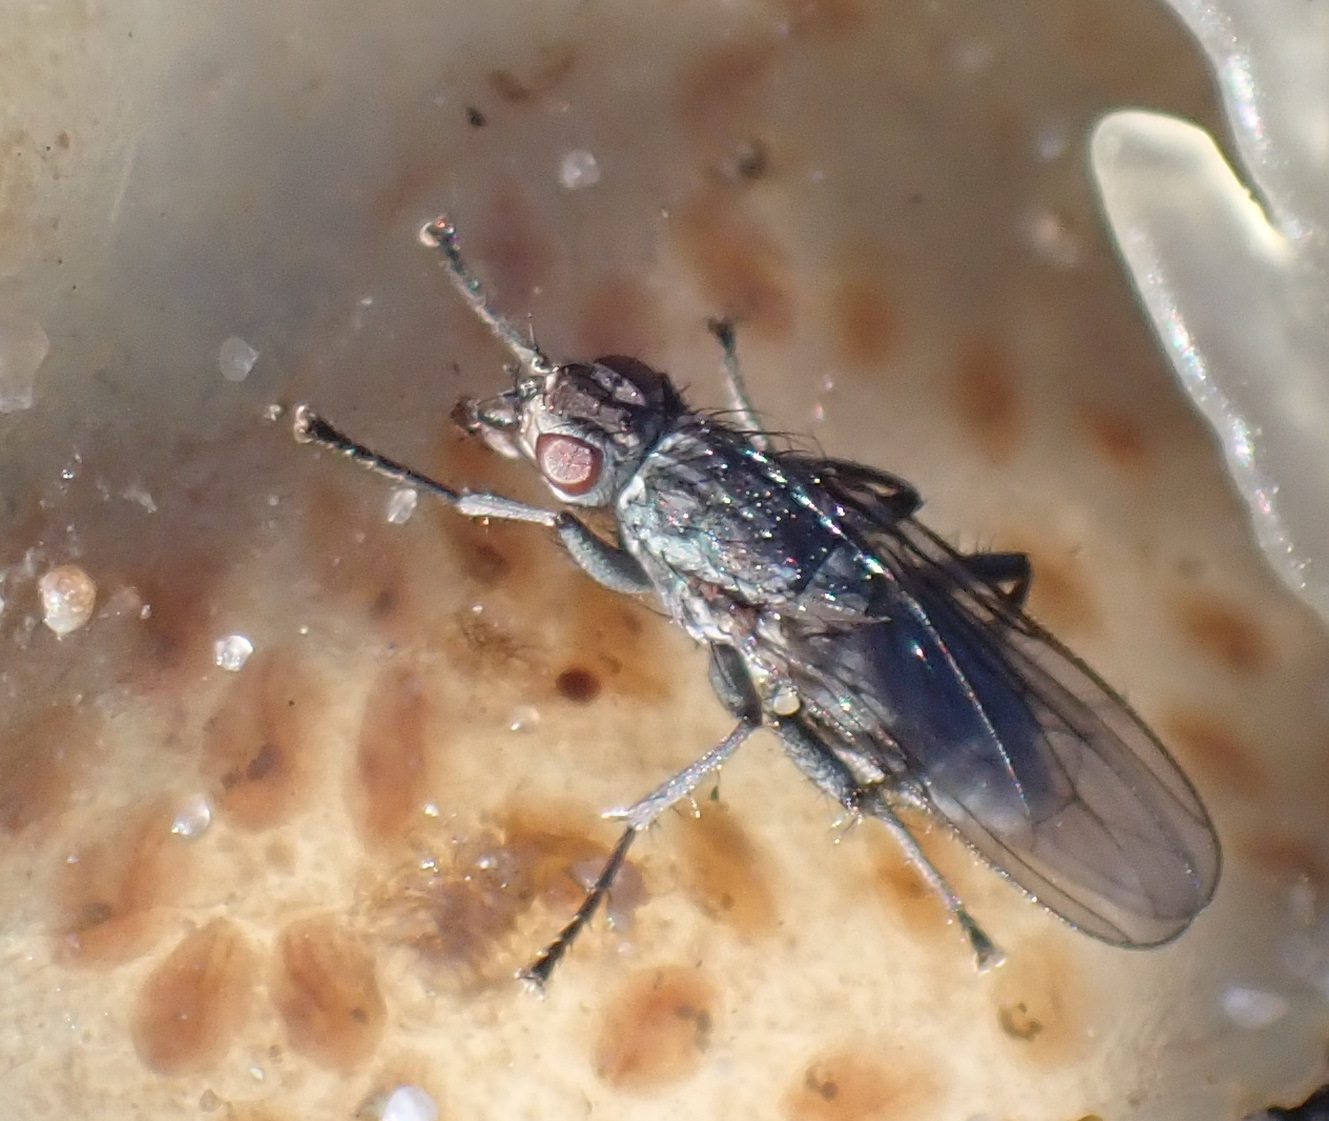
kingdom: Animalia
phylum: Arthropoda
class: Insecta
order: Diptera
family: Anthomyiidae
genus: Fucellia
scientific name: Fucellia capensis
